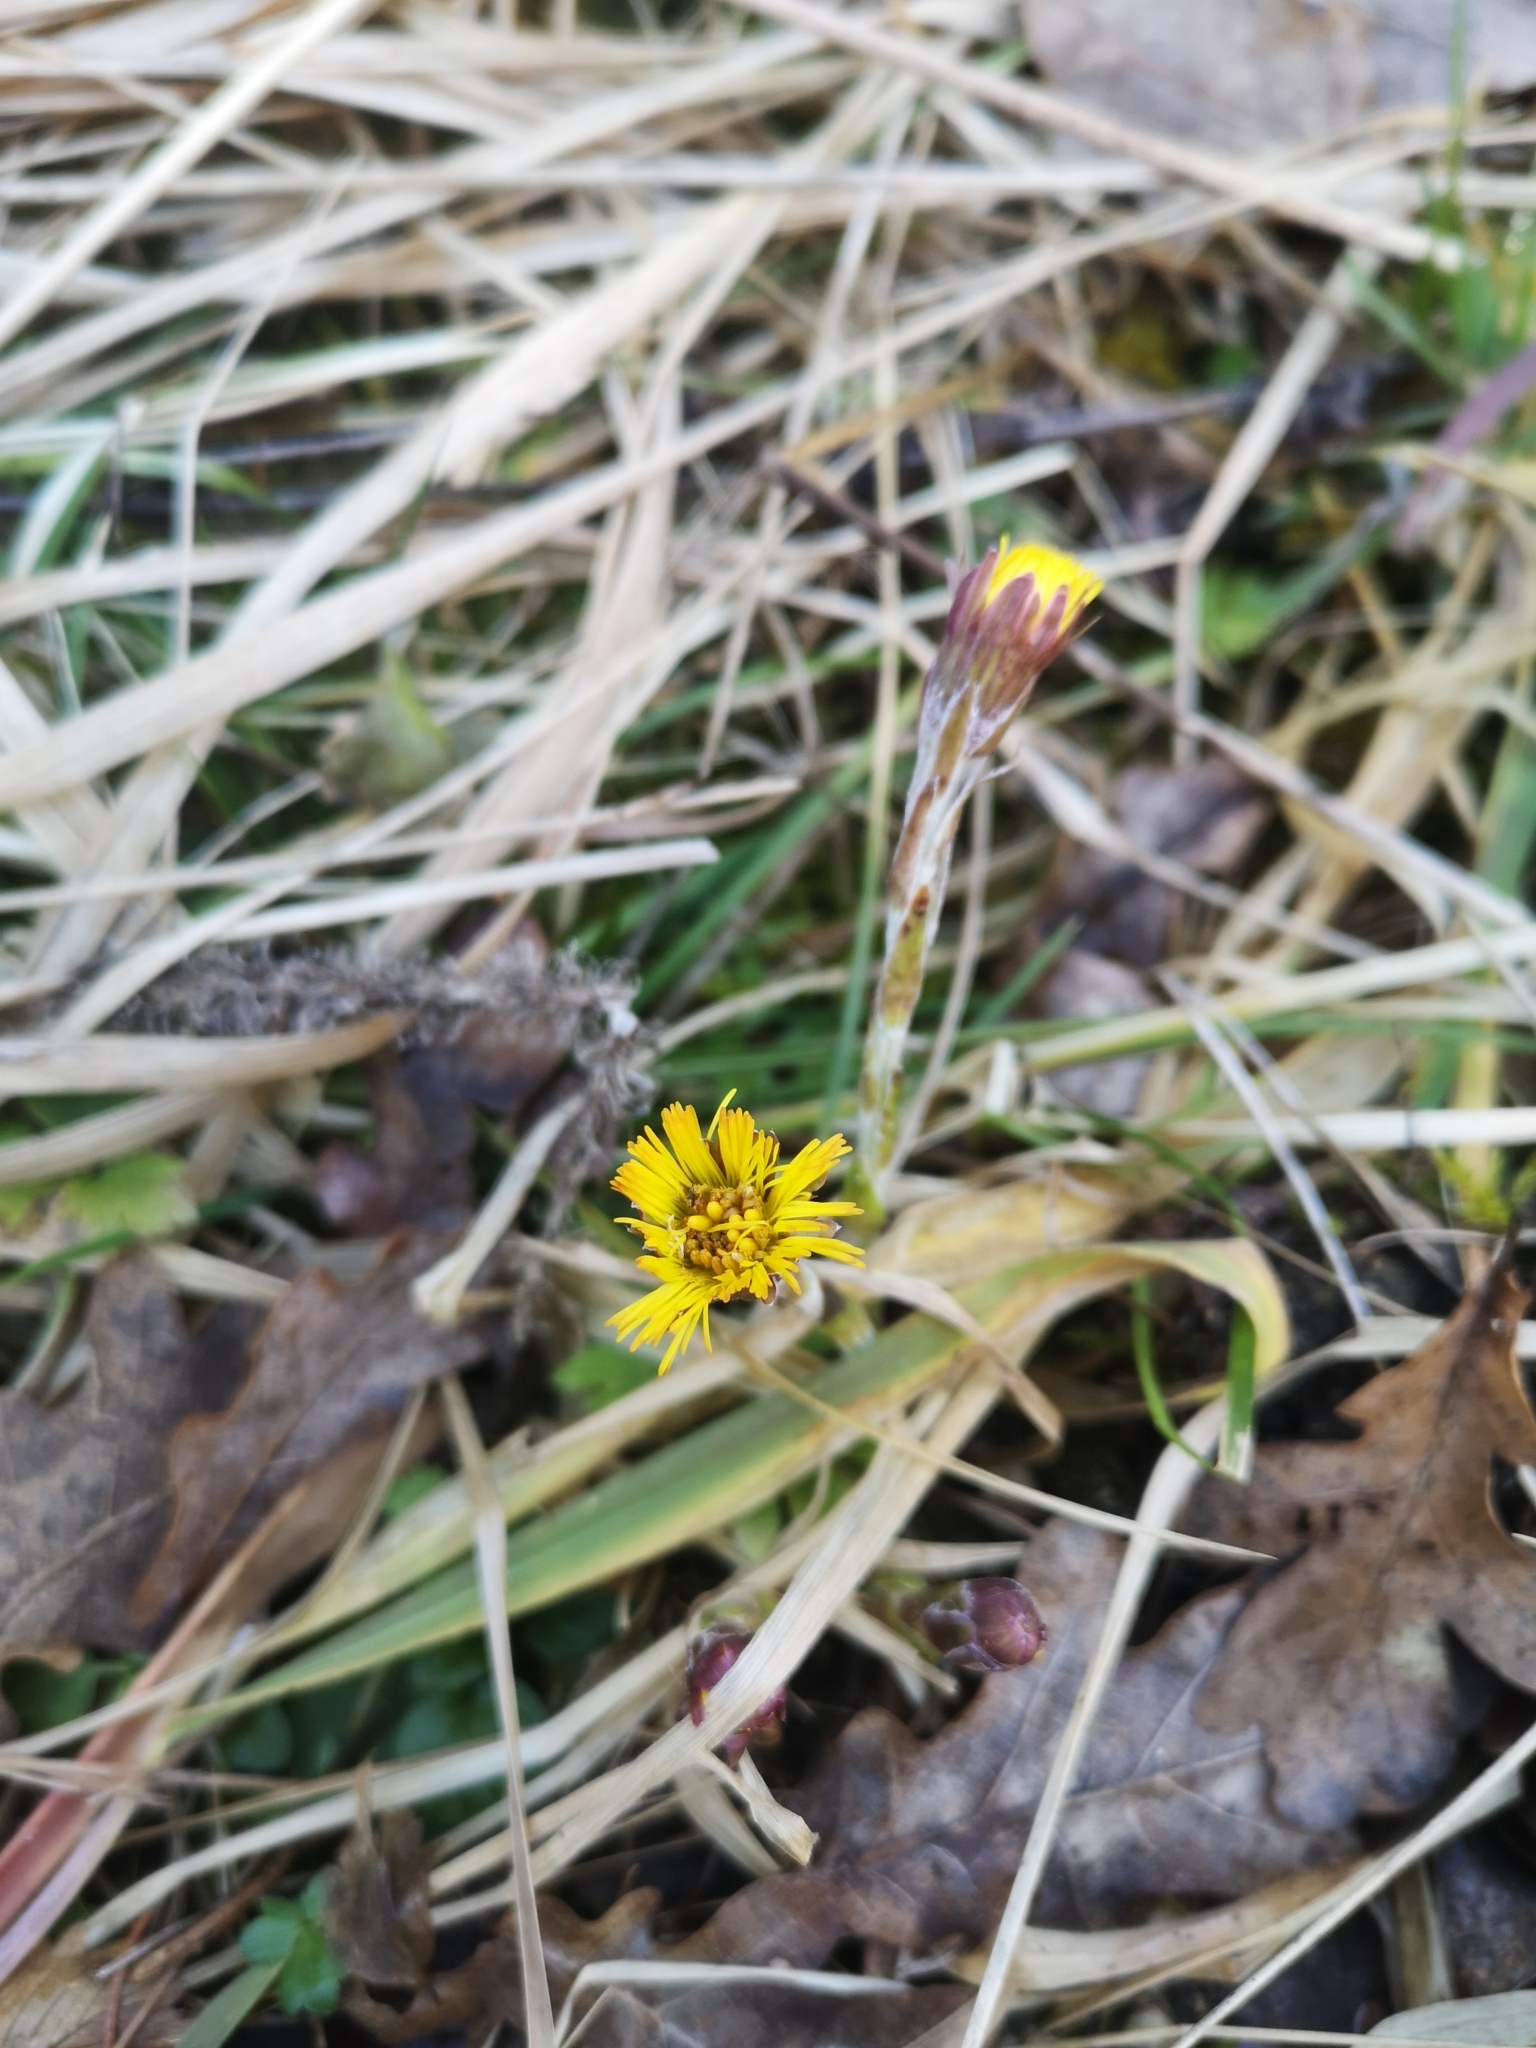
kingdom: Plantae
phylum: Tracheophyta
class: Magnoliopsida
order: Asterales
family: Asteraceae
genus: Tussilago
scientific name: Tussilago farfara
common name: Coltsfoot
